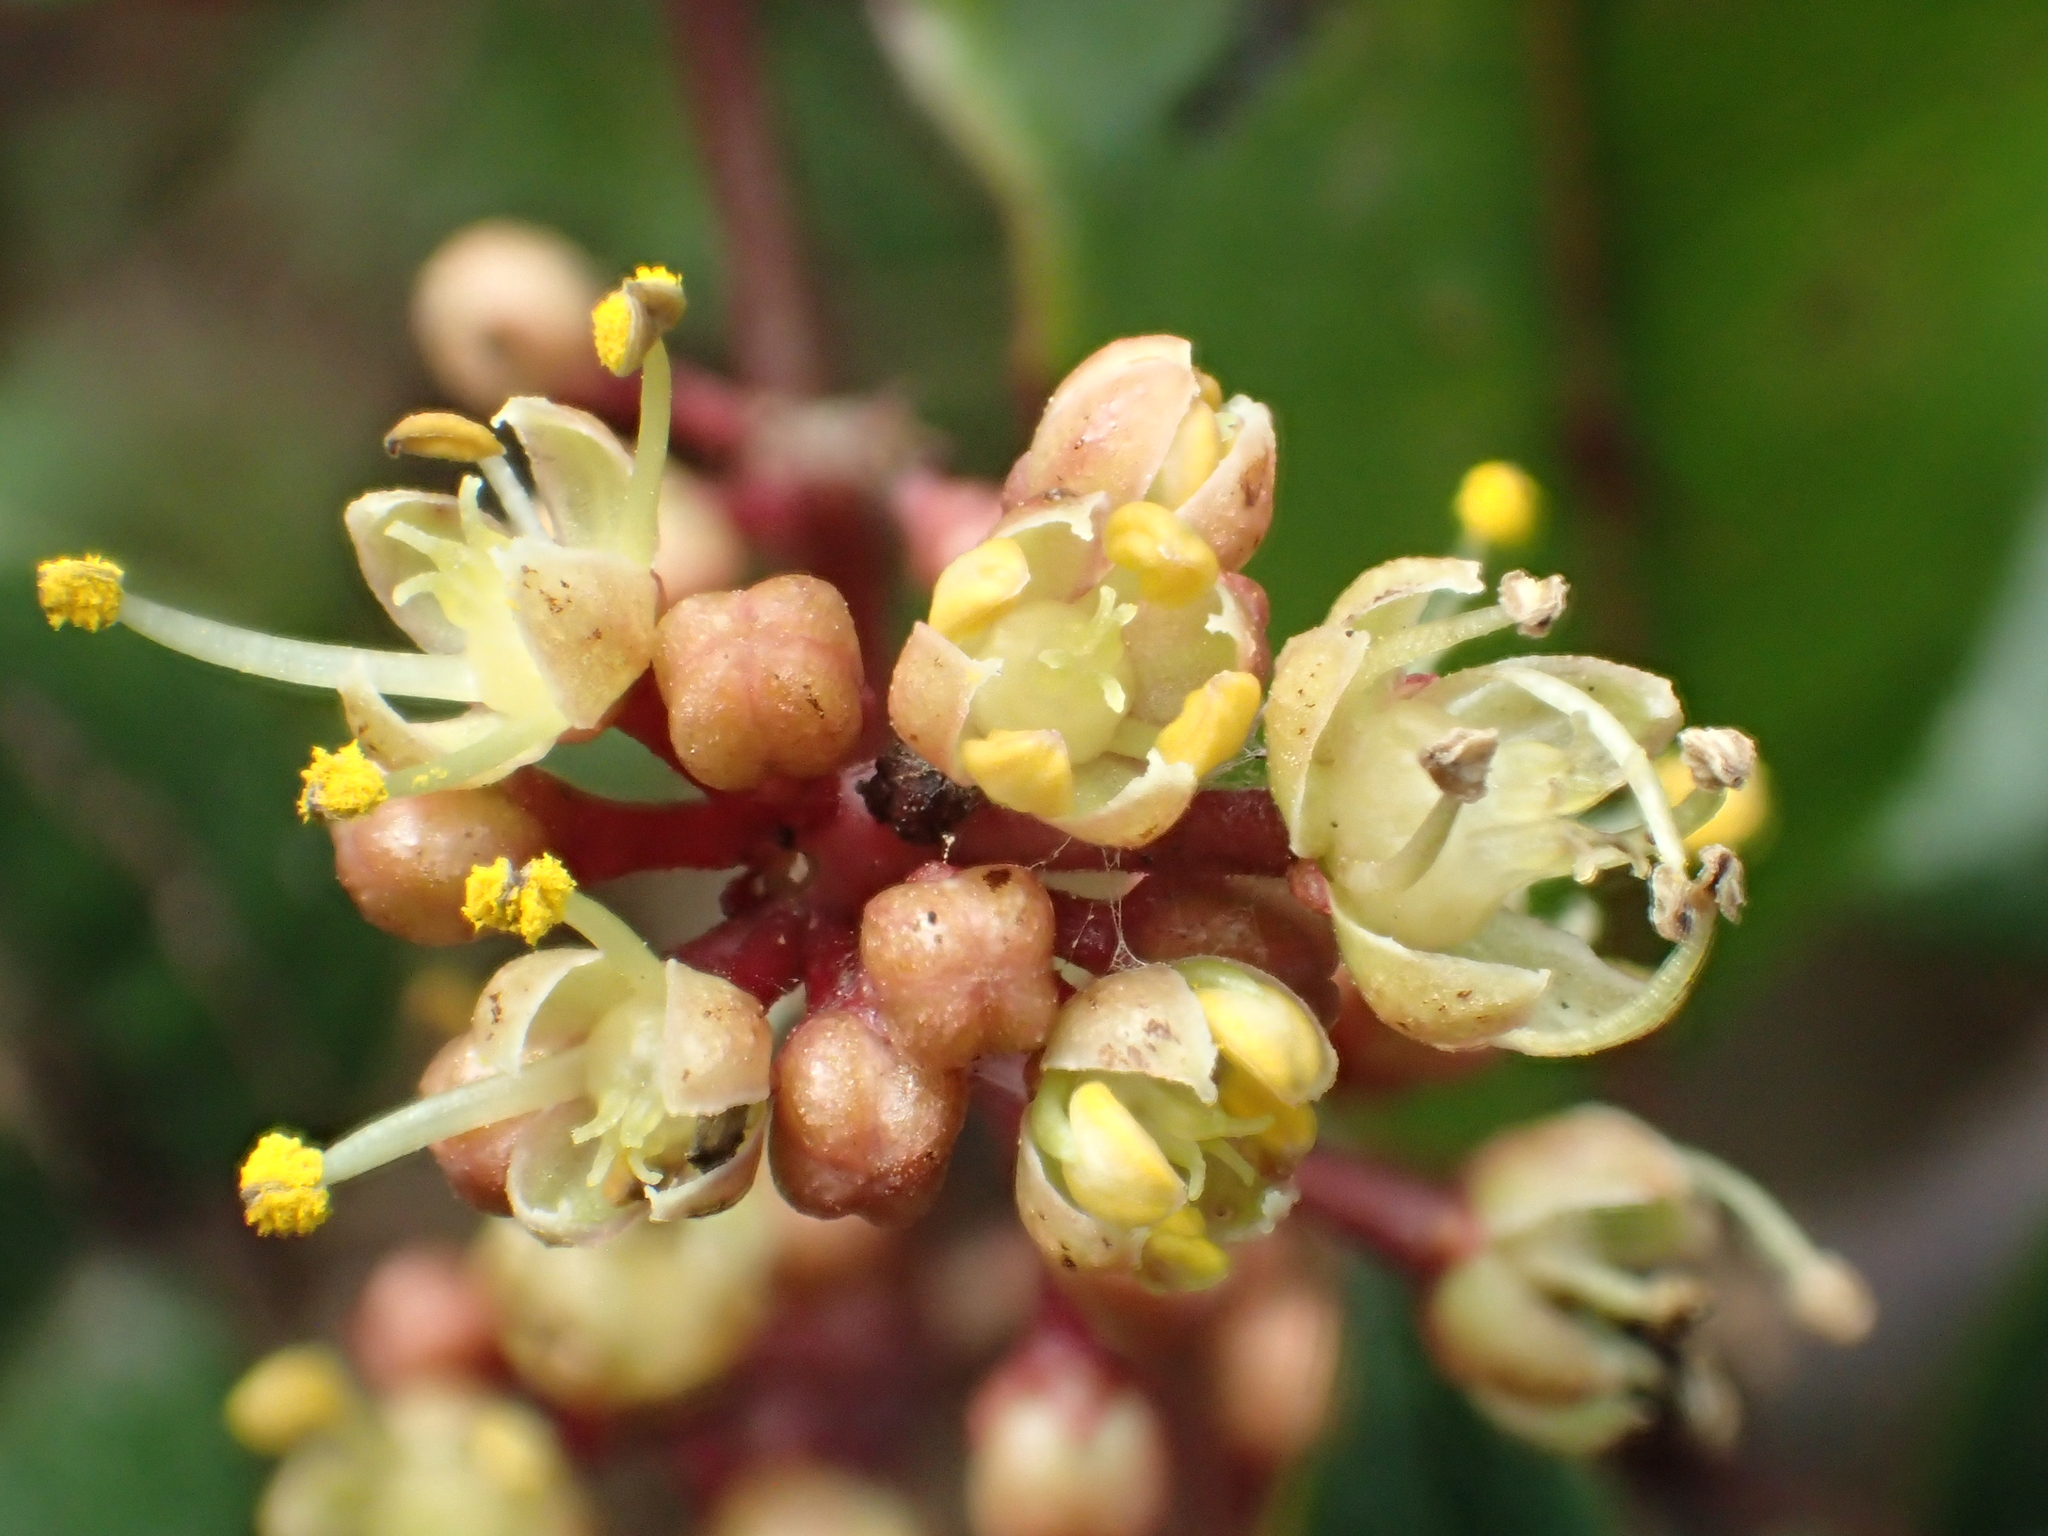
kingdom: Plantae
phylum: Tracheophyta
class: Magnoliopsida
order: Sapindales
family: Rutaceae
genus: Zanthoxylum
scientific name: Zanthoxylum nitidum
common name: Shiny-leaf prickly-ash
